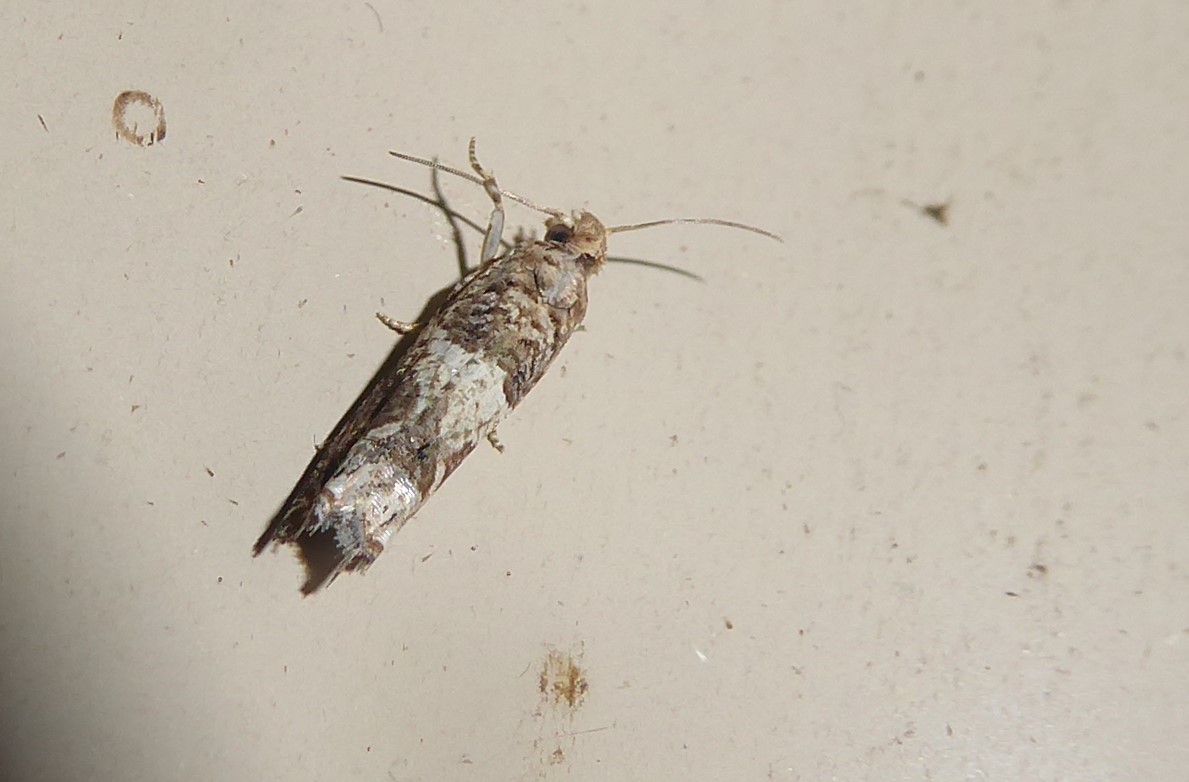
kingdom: Animalia
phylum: Arthropoda
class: Insecta
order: Lepidoptera
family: Tortricidae
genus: Crocidosema
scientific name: Crocidosema plebejana
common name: Southern bell
